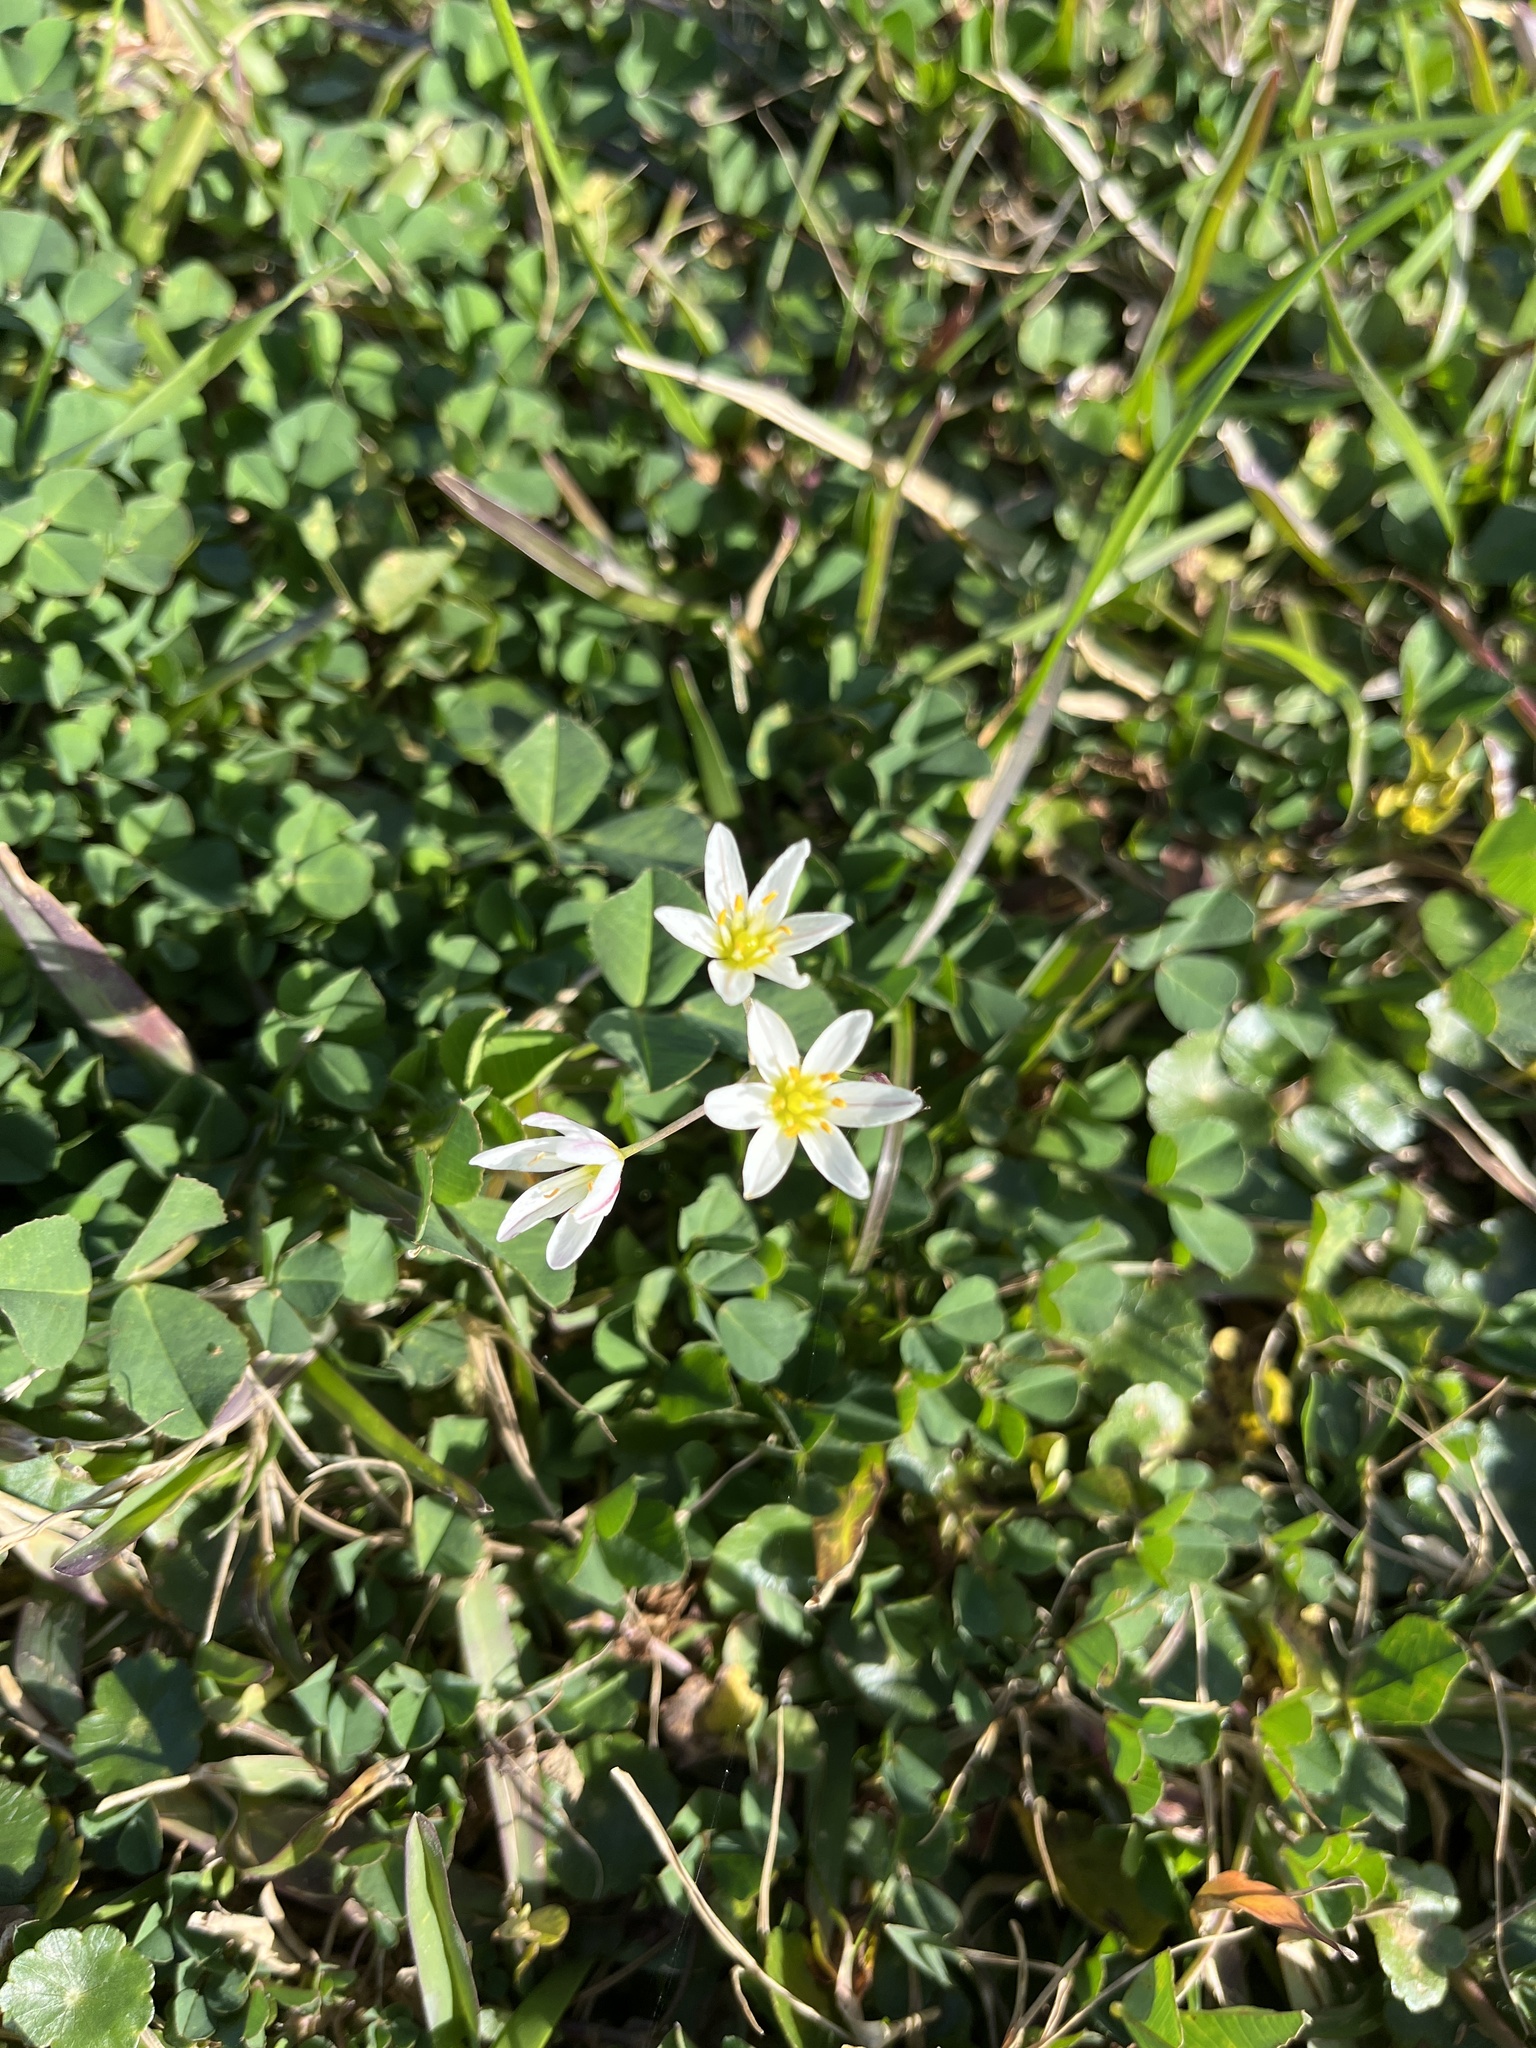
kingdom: Plantae
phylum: Tracheophyta
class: Liliopsida
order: Asparagales
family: Amaryllidaceae
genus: Nothoscordum
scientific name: Nothoscordum bivalve
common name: Crow-poison
